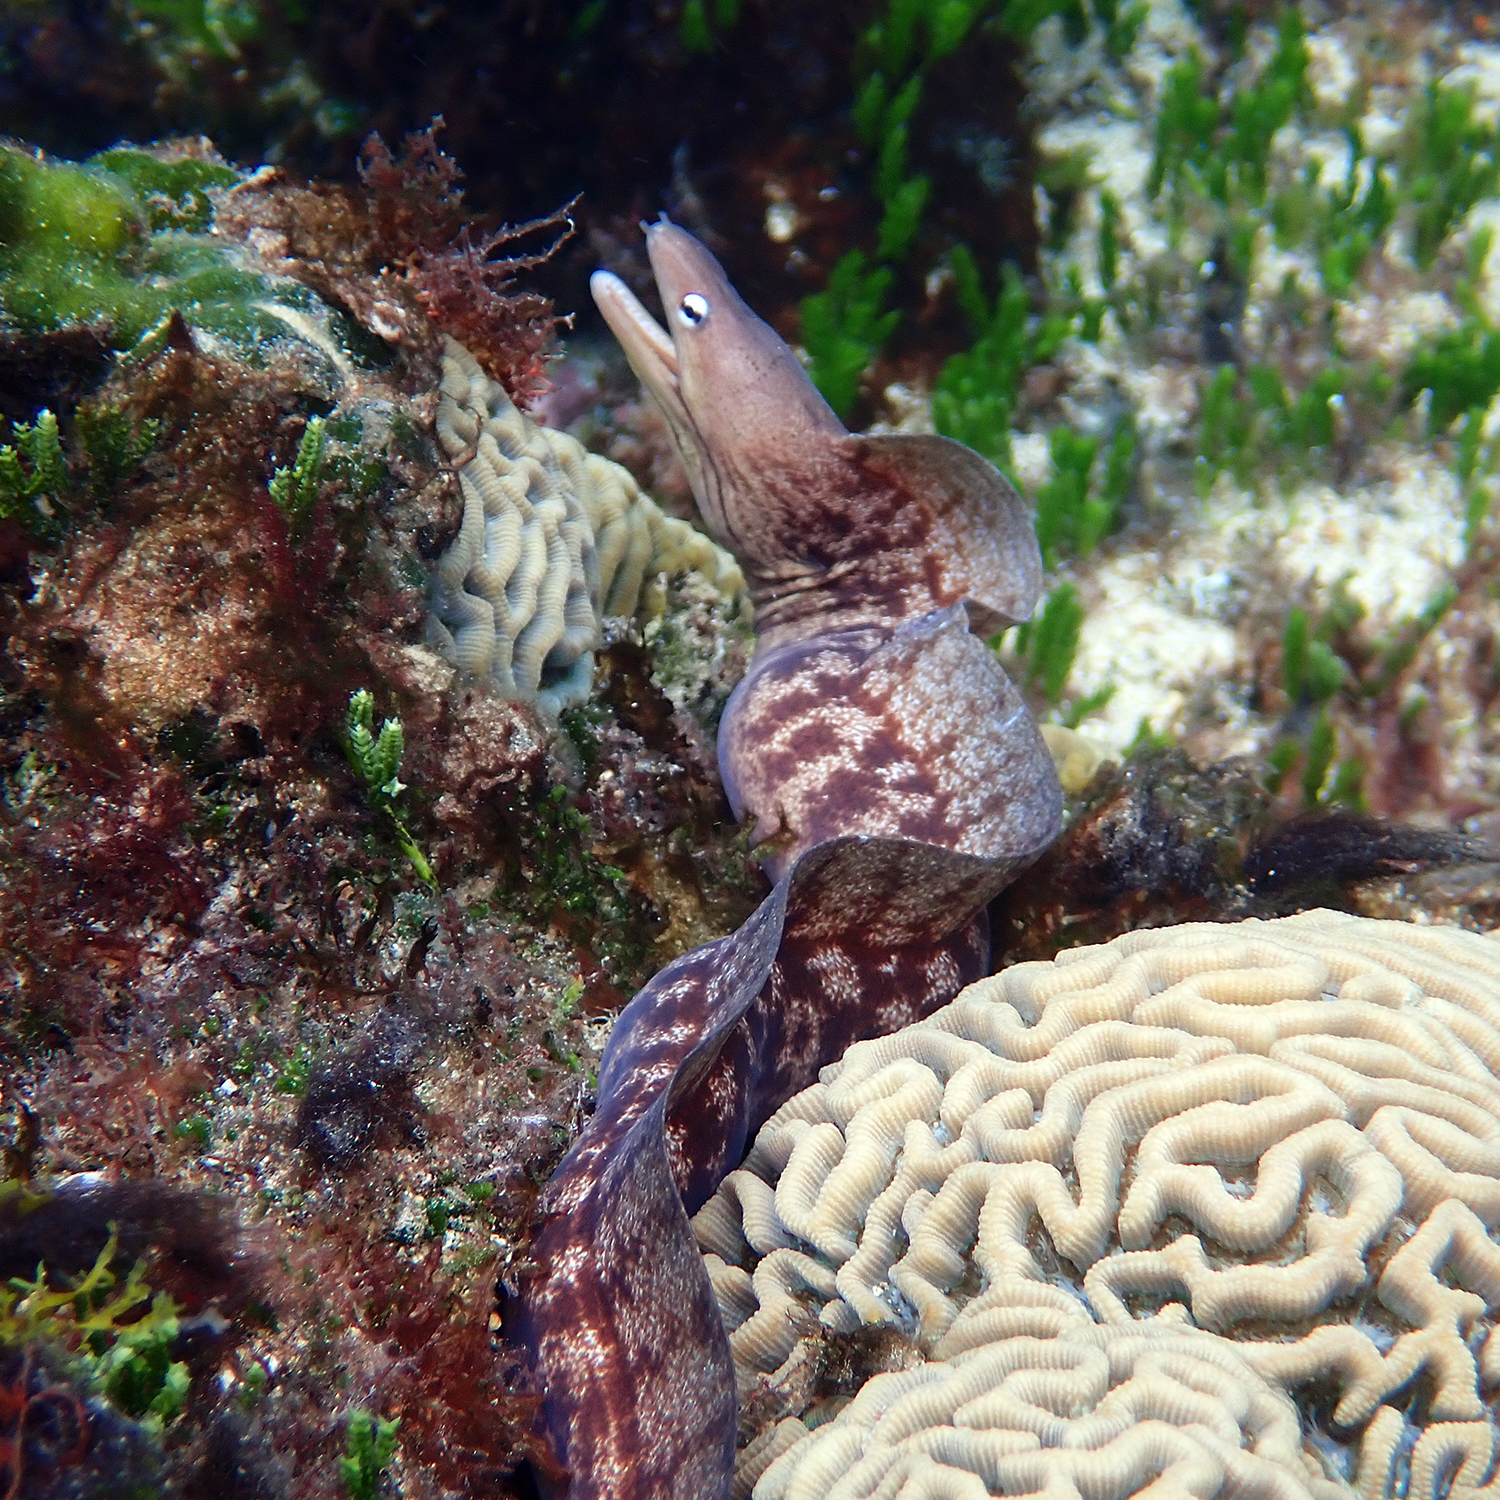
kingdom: Animalia
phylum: Chordata
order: Anguilliformes
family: Muraenidae
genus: Gymnothorax
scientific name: Gymnothorax nubilus
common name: Grey moray
